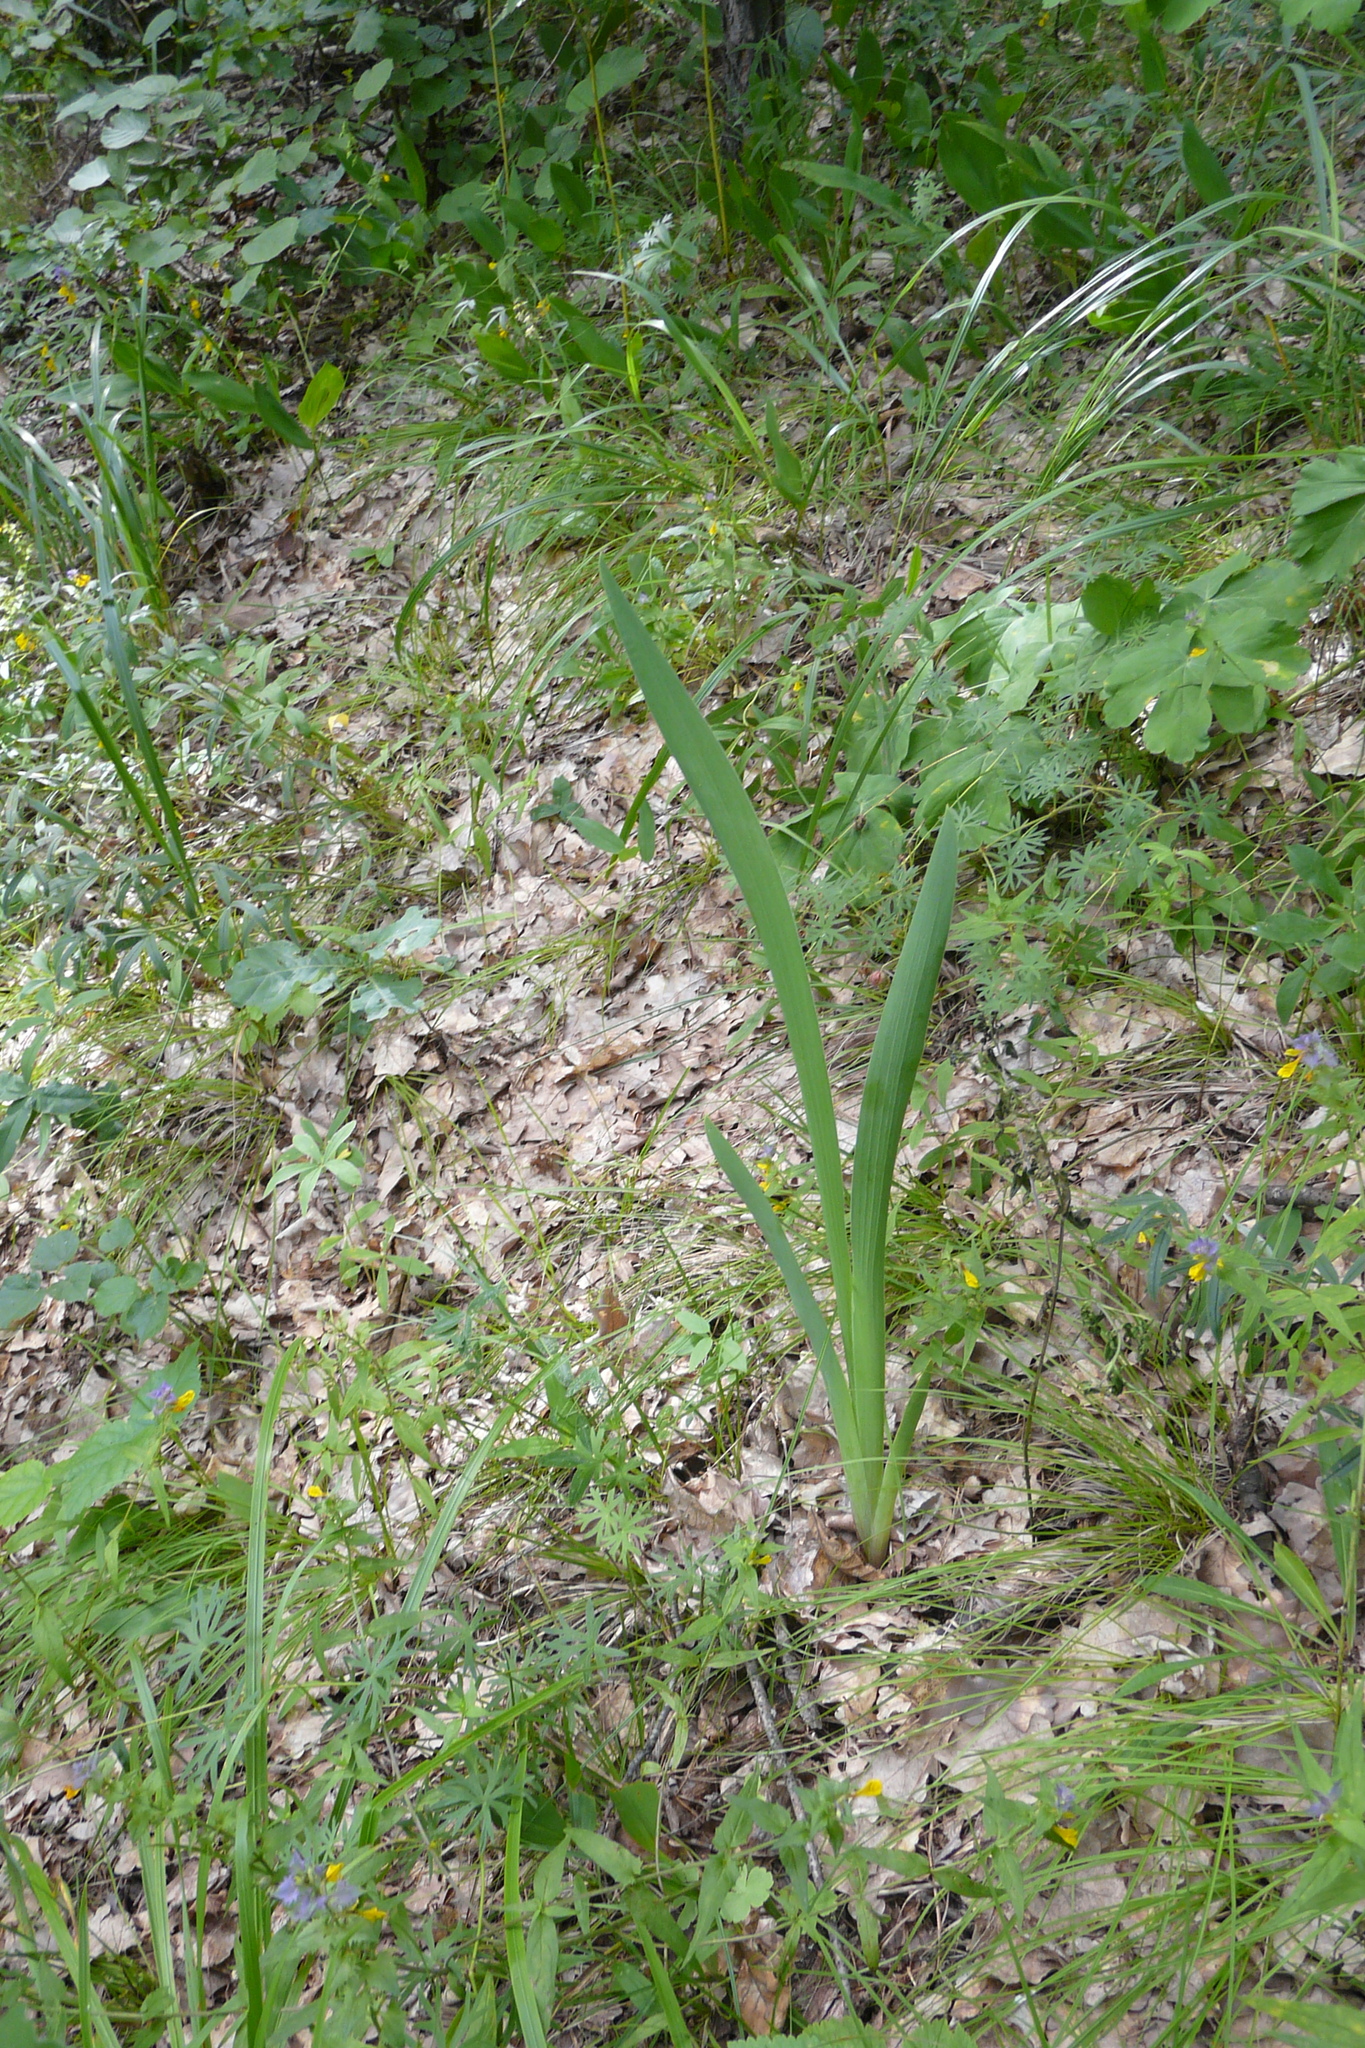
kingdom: Plantae
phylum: Tracheophyta
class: Liliopsida
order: Asparagales
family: Iridaceae
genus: Iris
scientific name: Iris aphylla
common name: Stool iris
